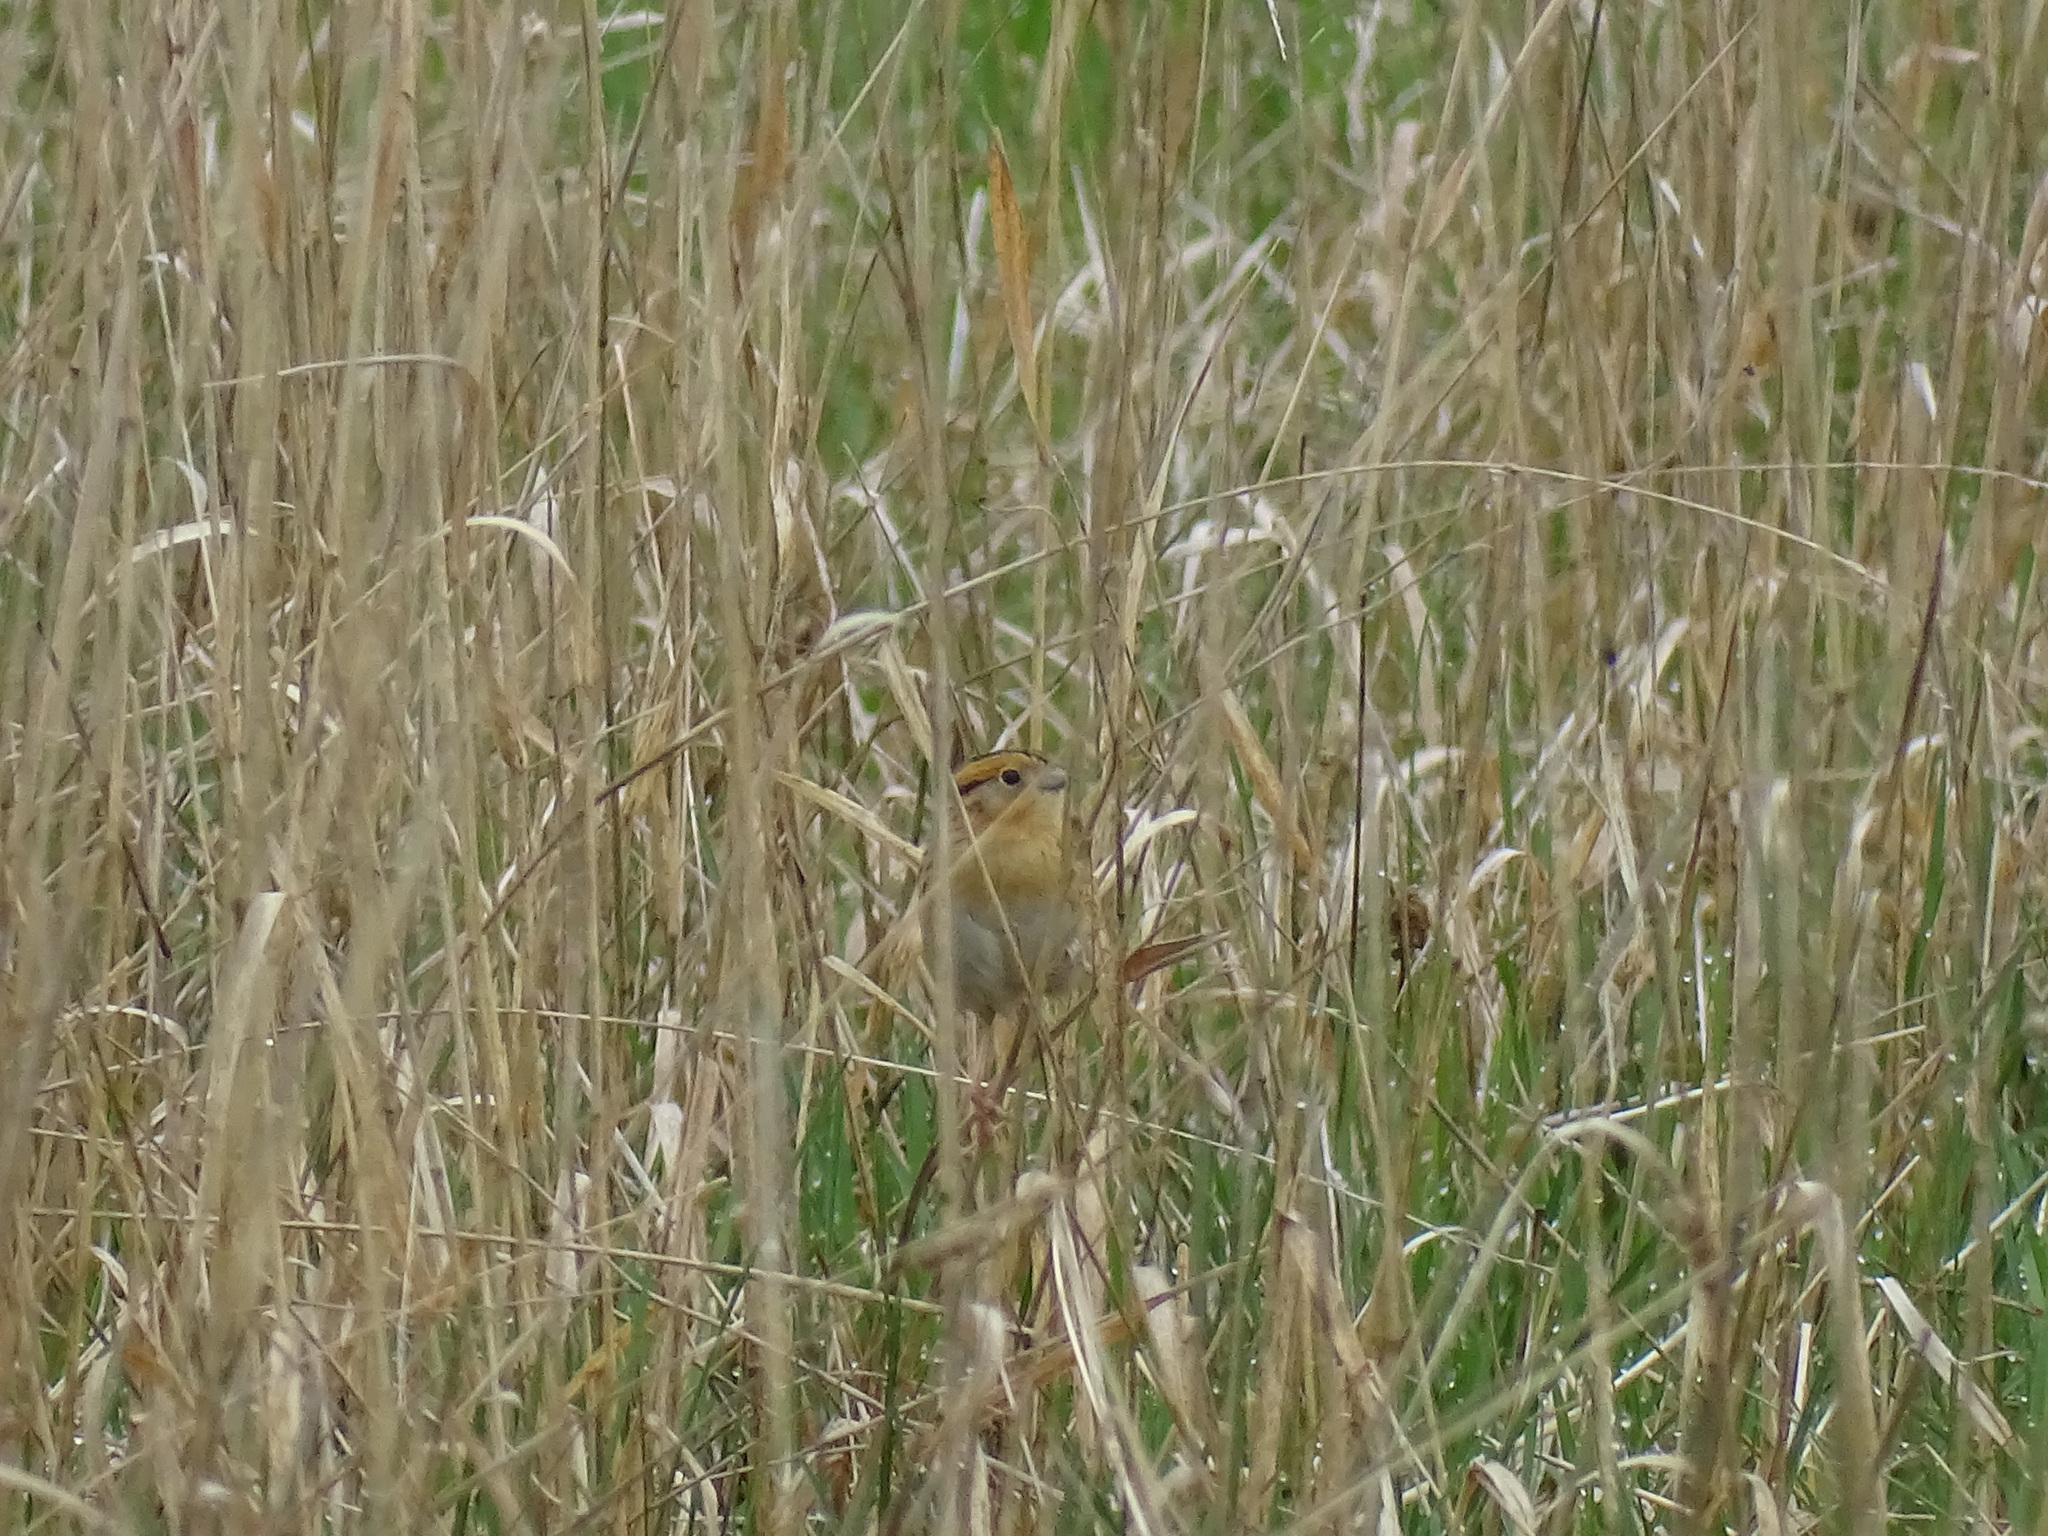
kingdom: Animalia
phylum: Chordata
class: Aves
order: Passeriformes
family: Passerellidae
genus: Ammospiza
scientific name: Ammospiza leconteii
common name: Le conte's sparrow
